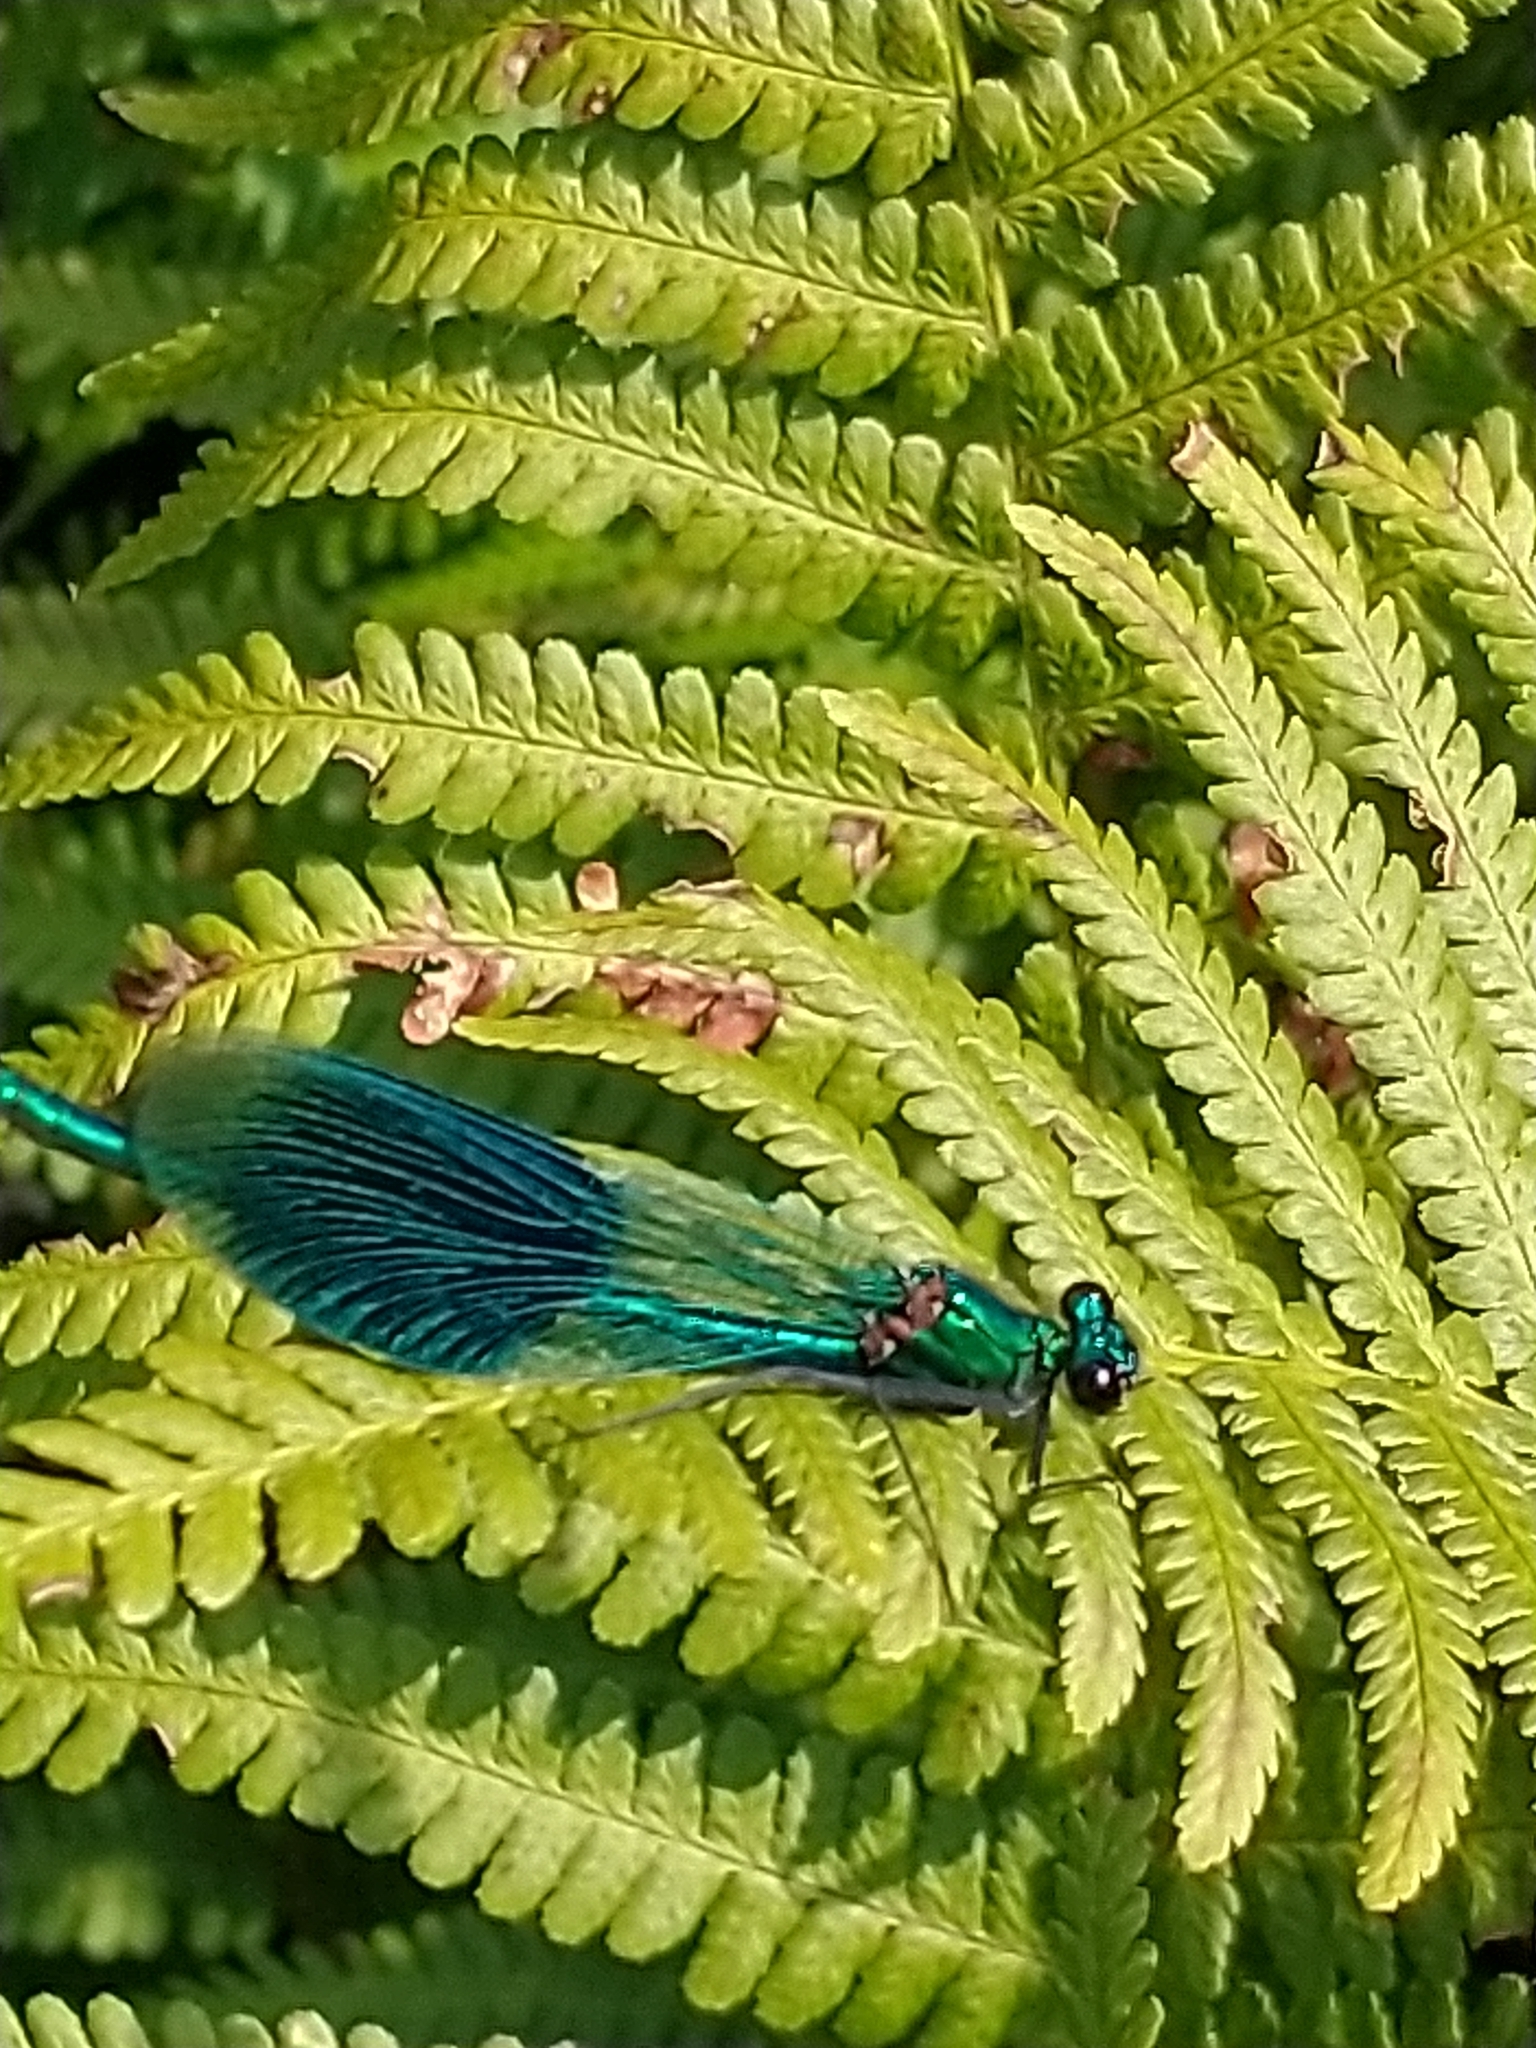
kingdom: Animalia
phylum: Arthropoda
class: Insecta
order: Odonata
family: Calopterygidae
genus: Calopteryx
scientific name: Calopteryx splendens
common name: Banded demoiselle
